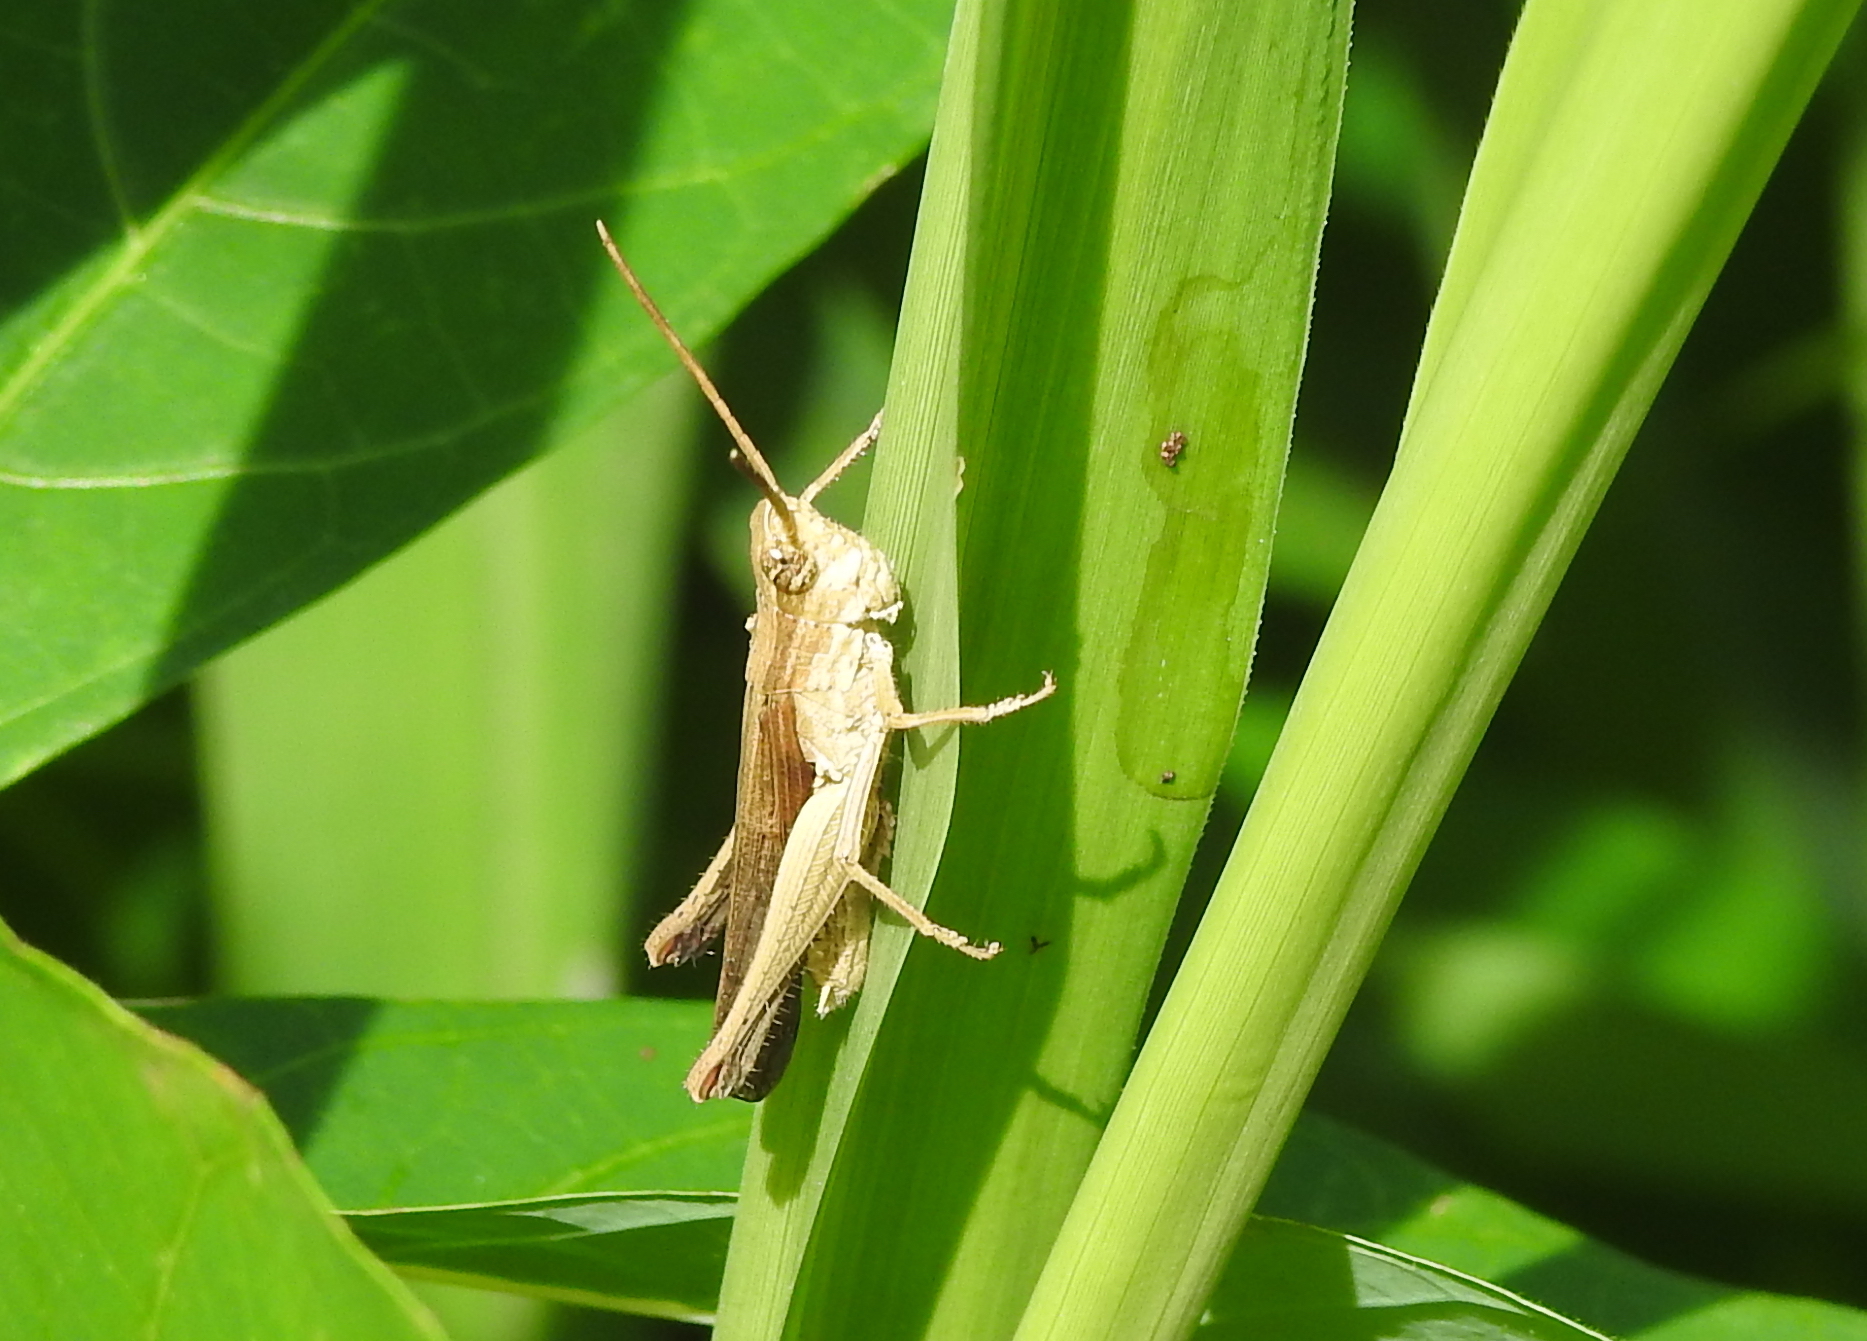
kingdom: Animalia
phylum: Arthropoda
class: Insecta
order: Orthoptera
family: Acrididae
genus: Phlaeoba
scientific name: Phlaeoba infumata
